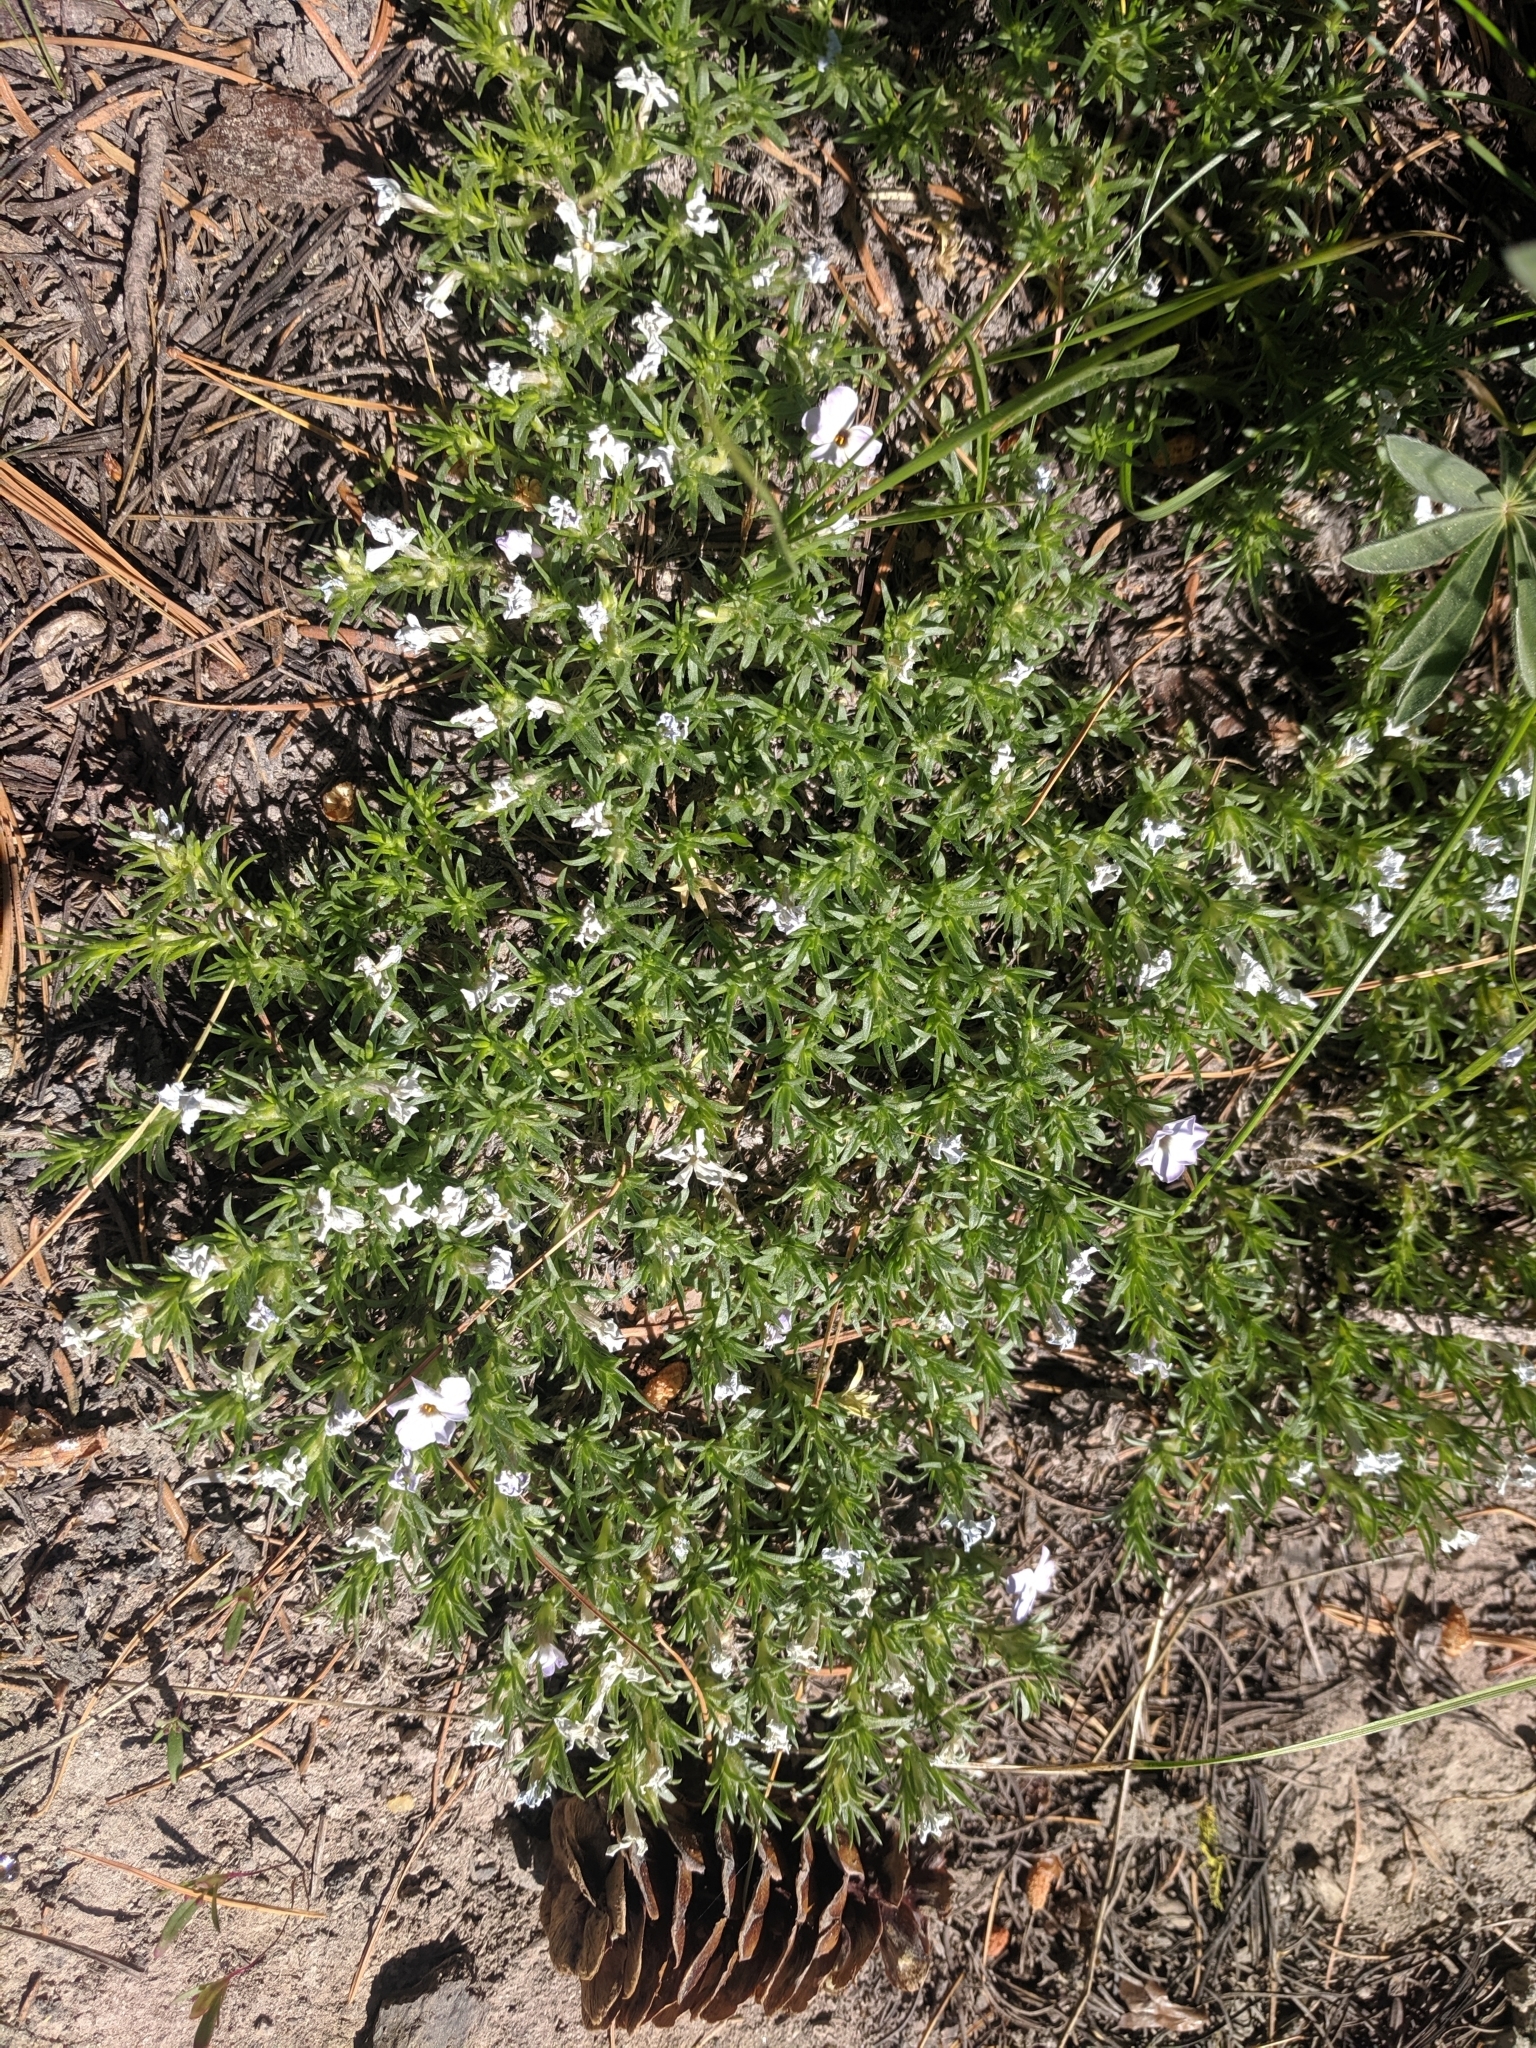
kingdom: Plantae
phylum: Tracheophyta
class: Magnoliopsida
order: Ericales
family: Polemoniaceae
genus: Phlox
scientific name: Phlox diffusa
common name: Mat phlox
